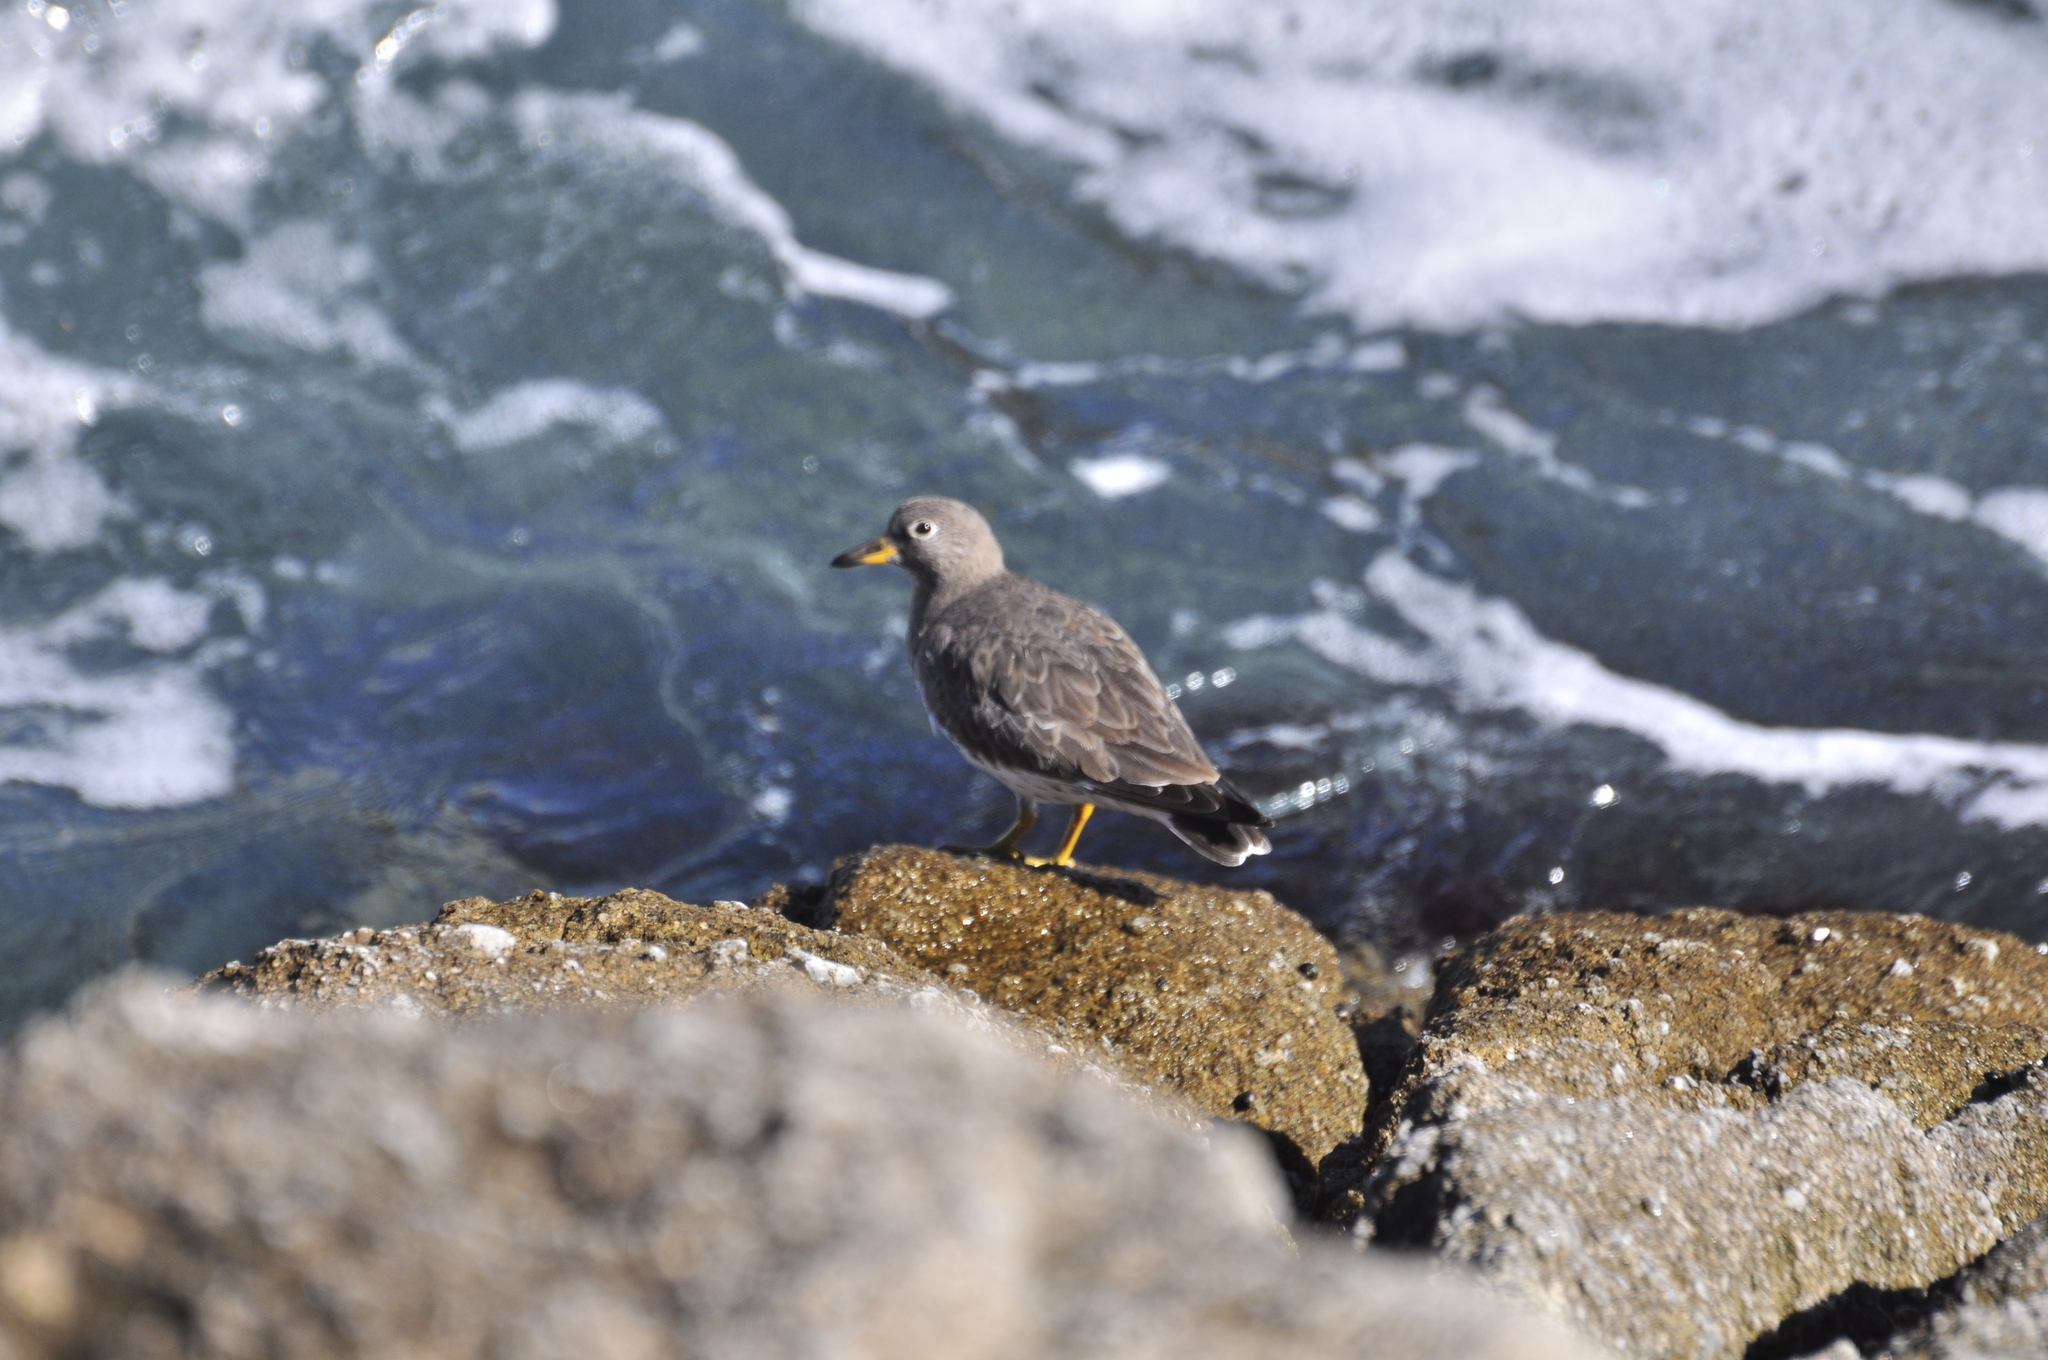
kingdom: Animalia
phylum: Chordata
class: Aves
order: Charadriiformes
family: Scolopacidae
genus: Calidris
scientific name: Calidris virgata
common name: Surfbird
